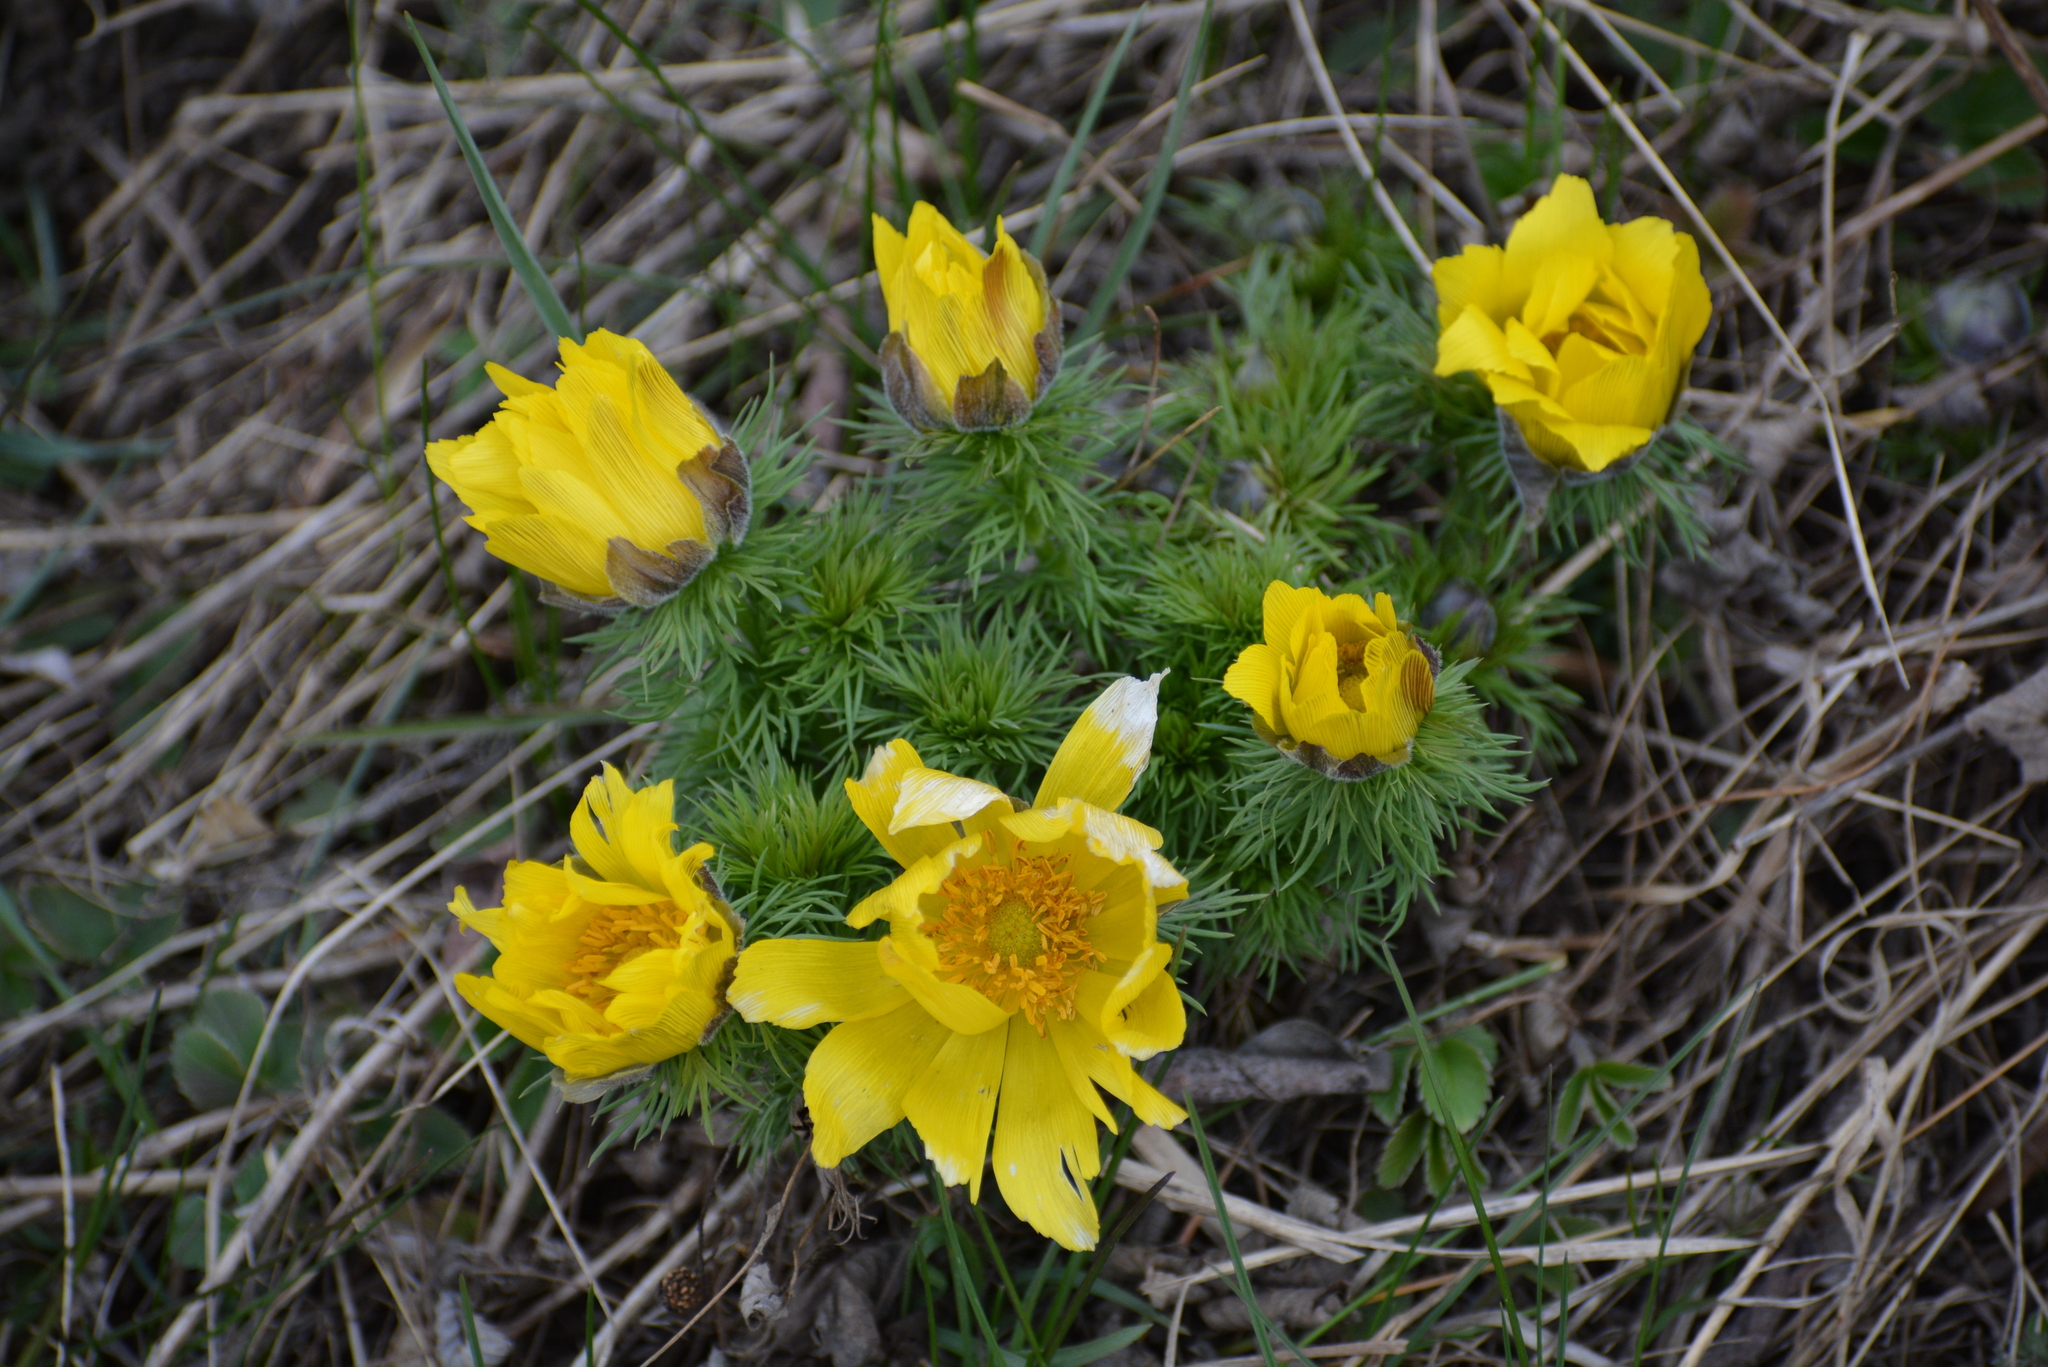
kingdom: Plantae
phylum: Tracheophyta
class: Magnoliopsida
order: Ranunculales
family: Ranunculaceae
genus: Adonis
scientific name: Adonis vernalis
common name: Yellow pheasants-eye
